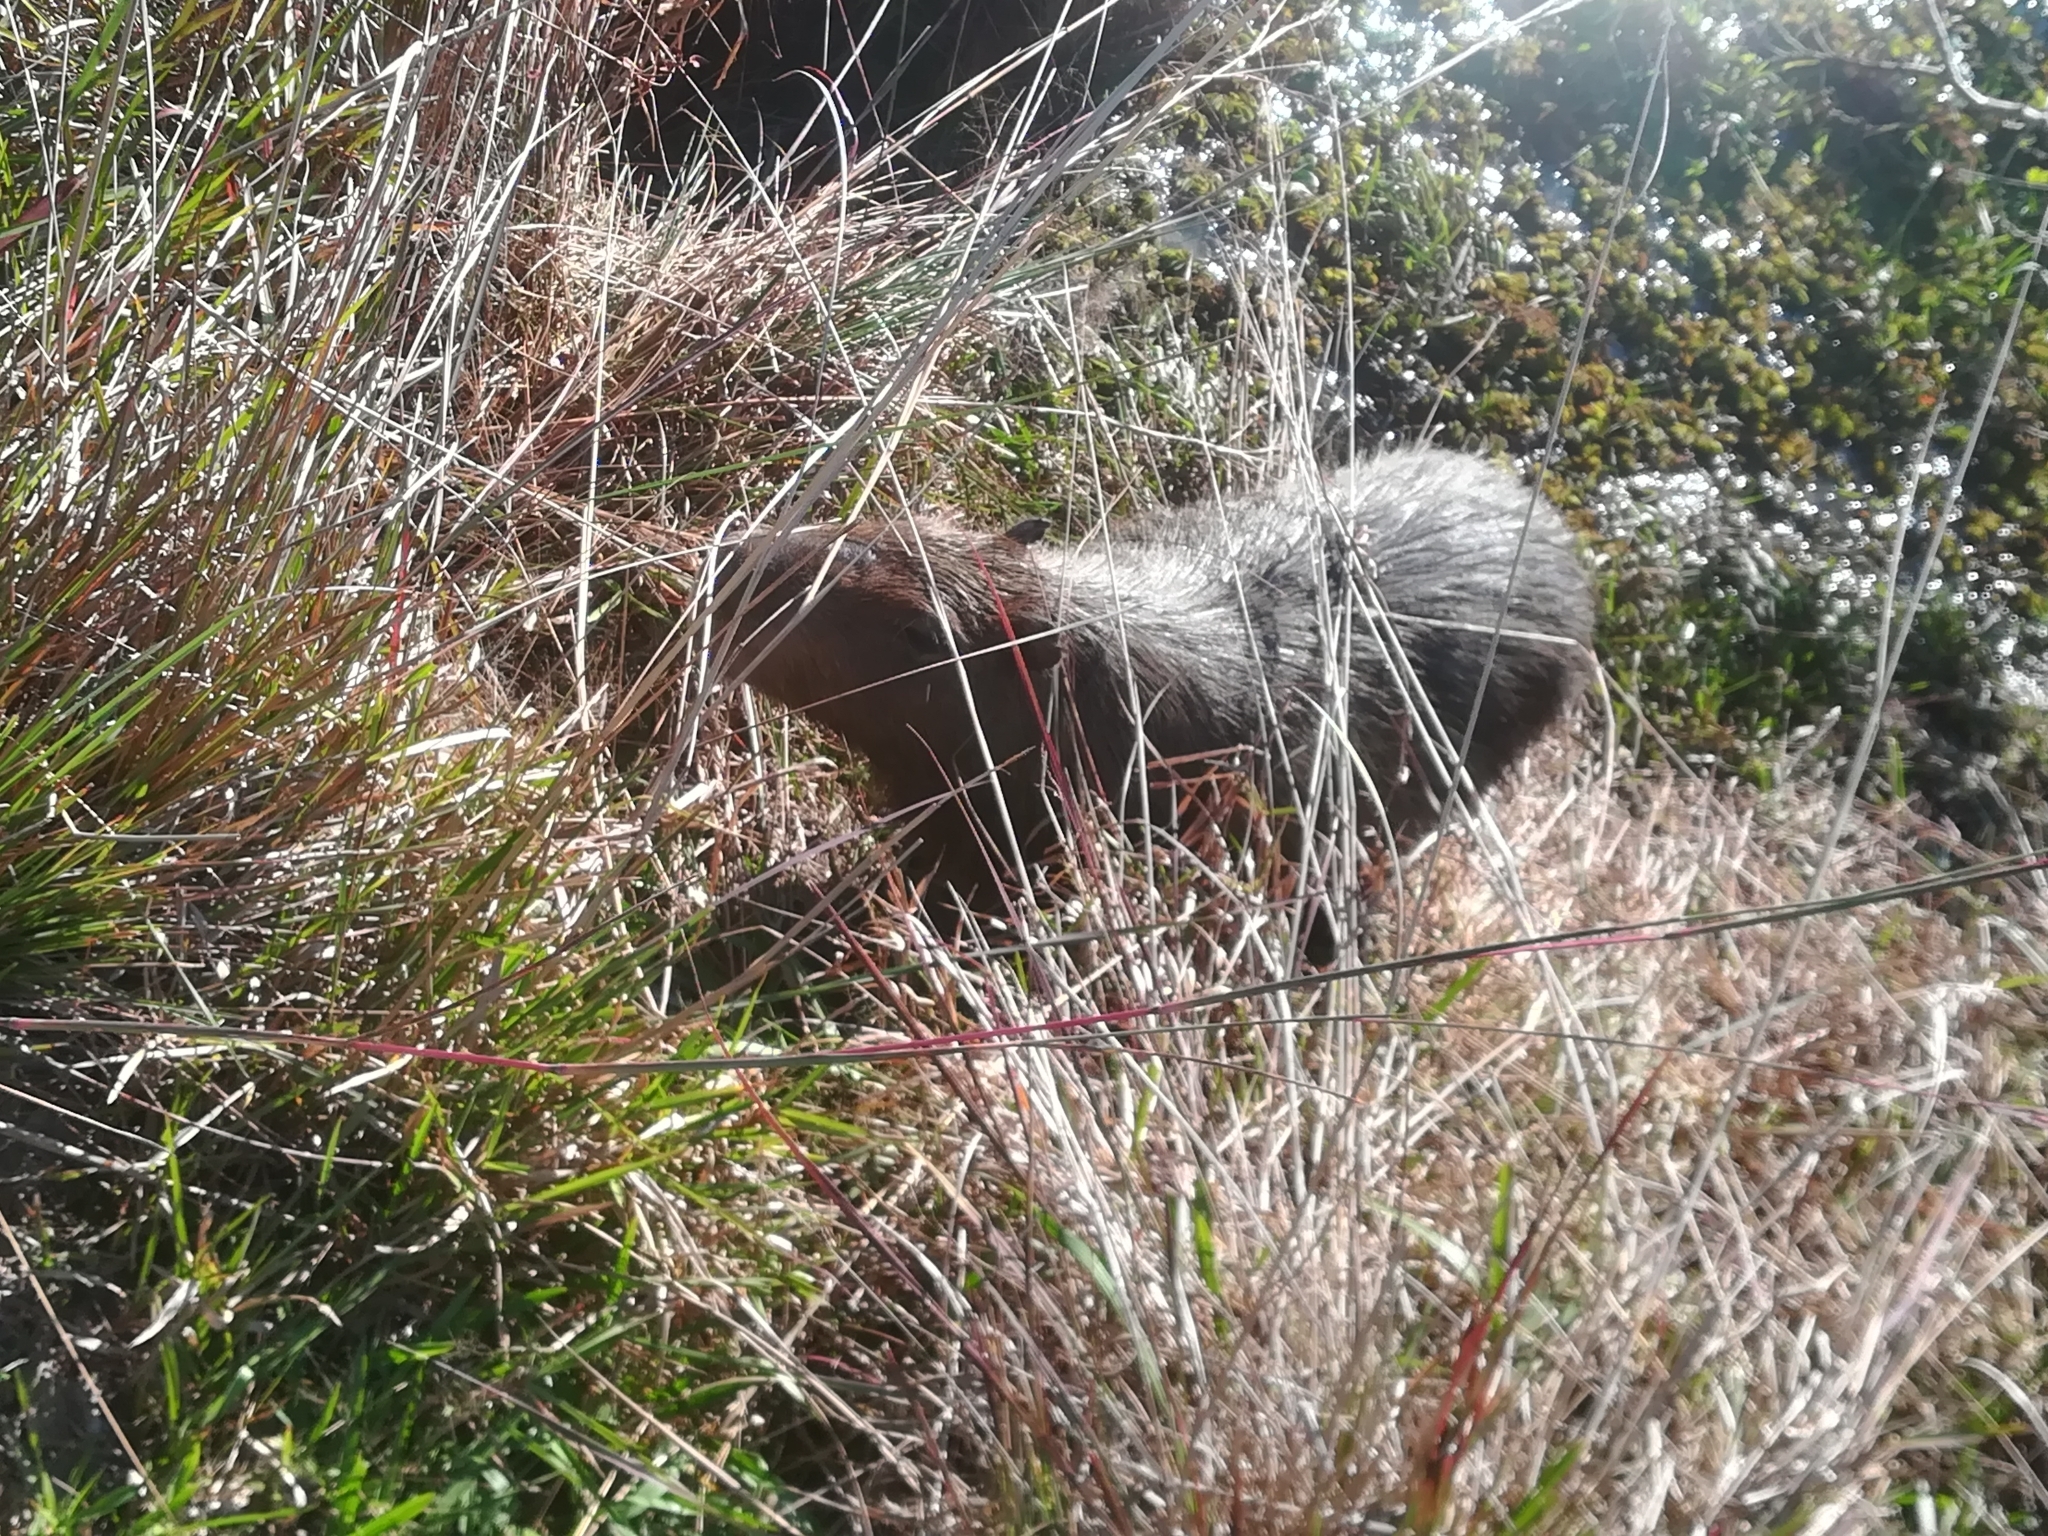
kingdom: Animalia
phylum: Chordata
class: Mammalia
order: Rodentia
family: Caviidae
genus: Hydrochoerus
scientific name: Hydrochoerus hydrochaeris
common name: Capybara
